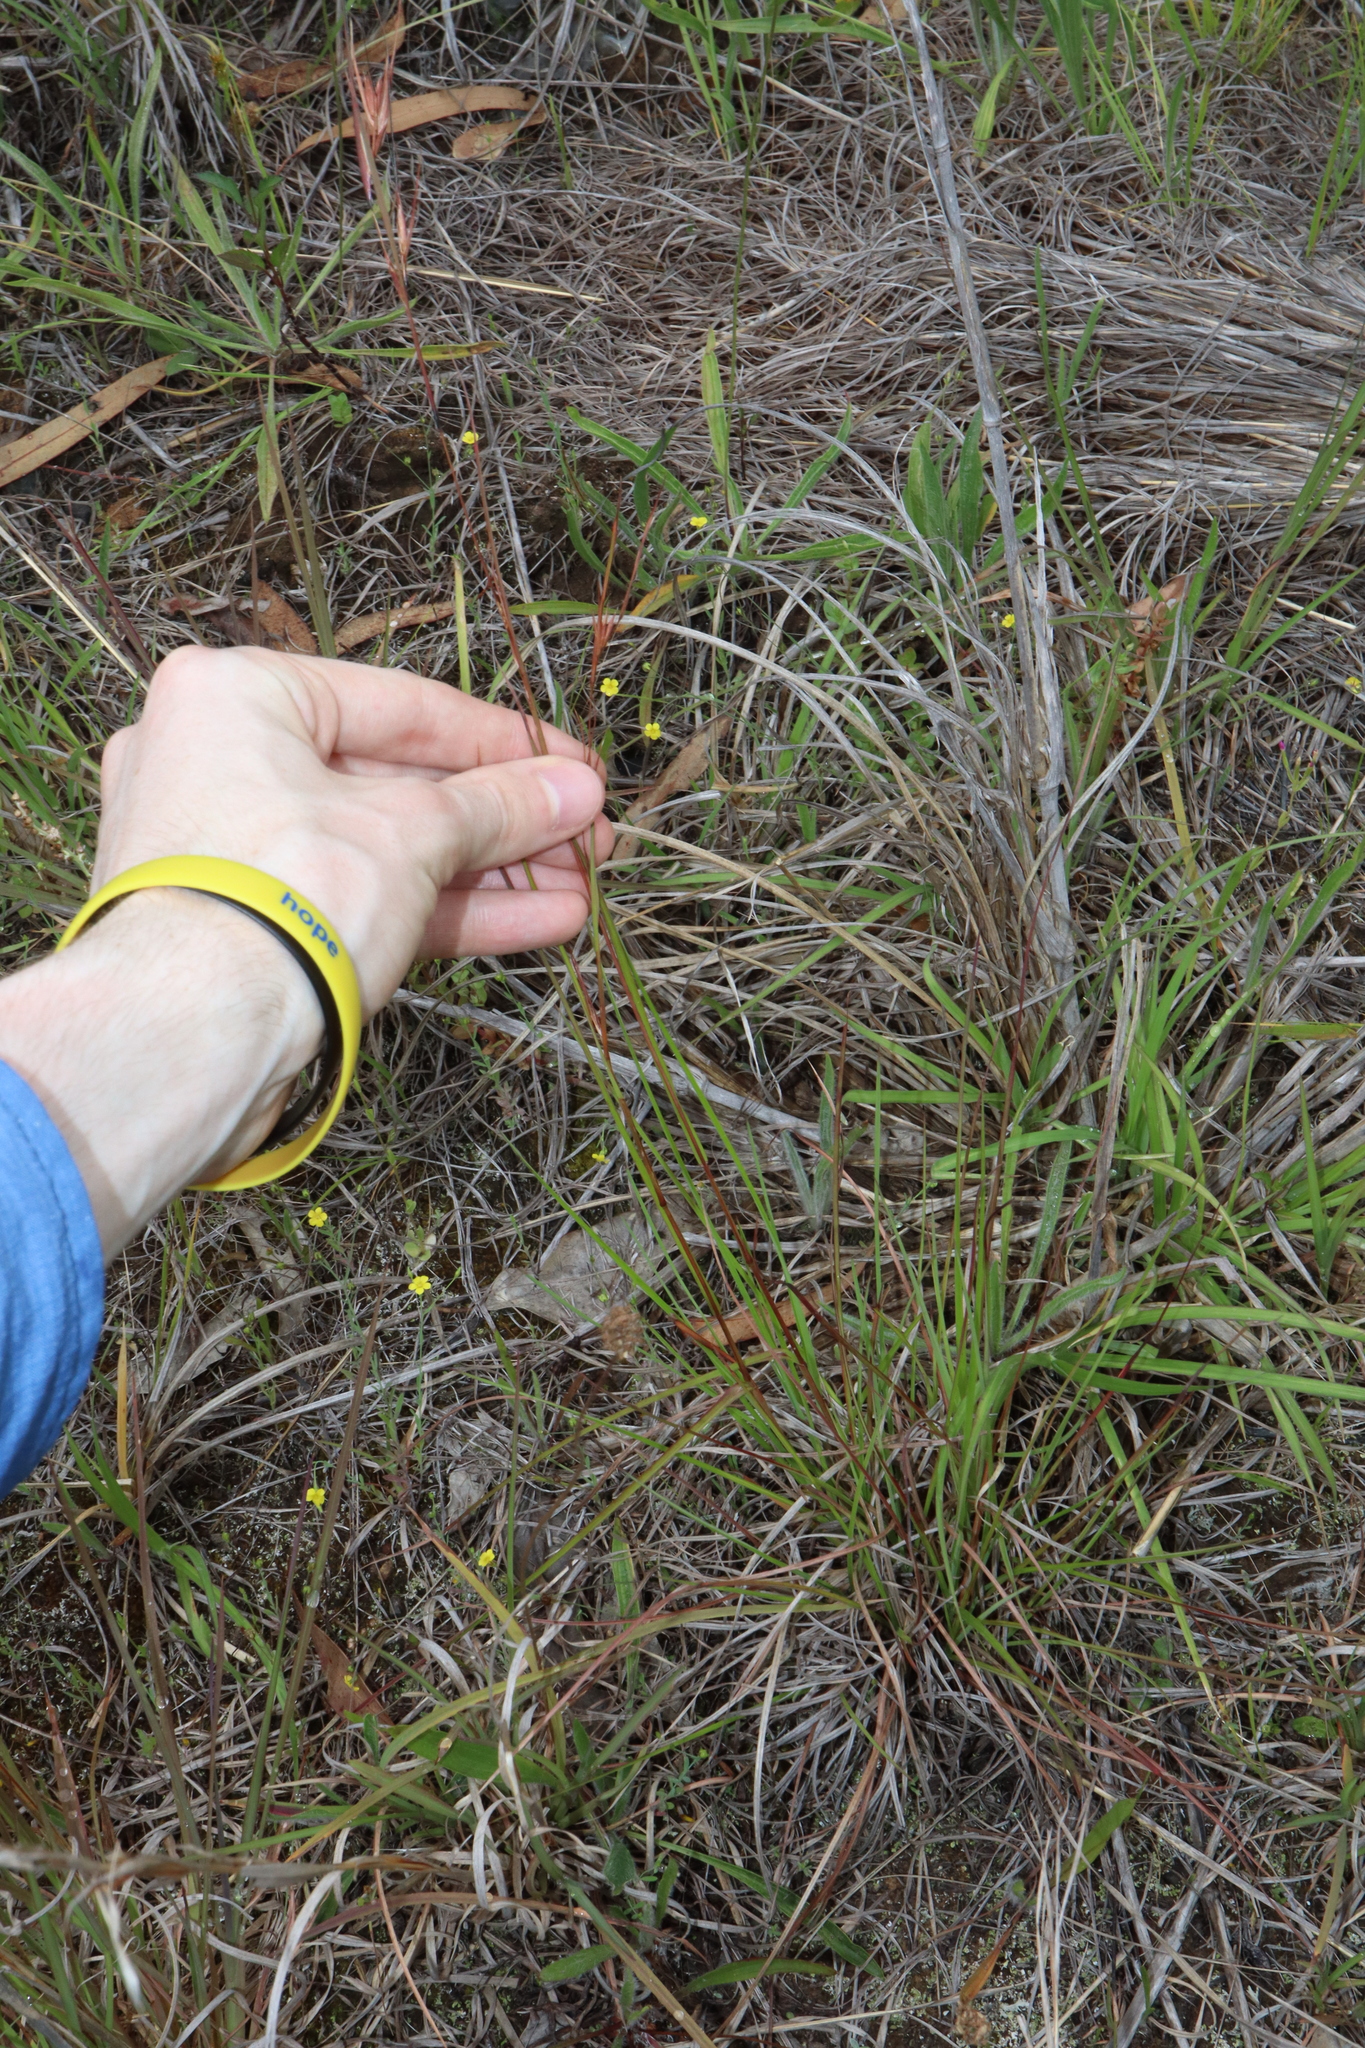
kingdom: Plantae
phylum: Tracheophyta
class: Liliopsida
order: Poales
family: Poaceae
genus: Themeda
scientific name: Themeda triandra
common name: Kangaroo grass
